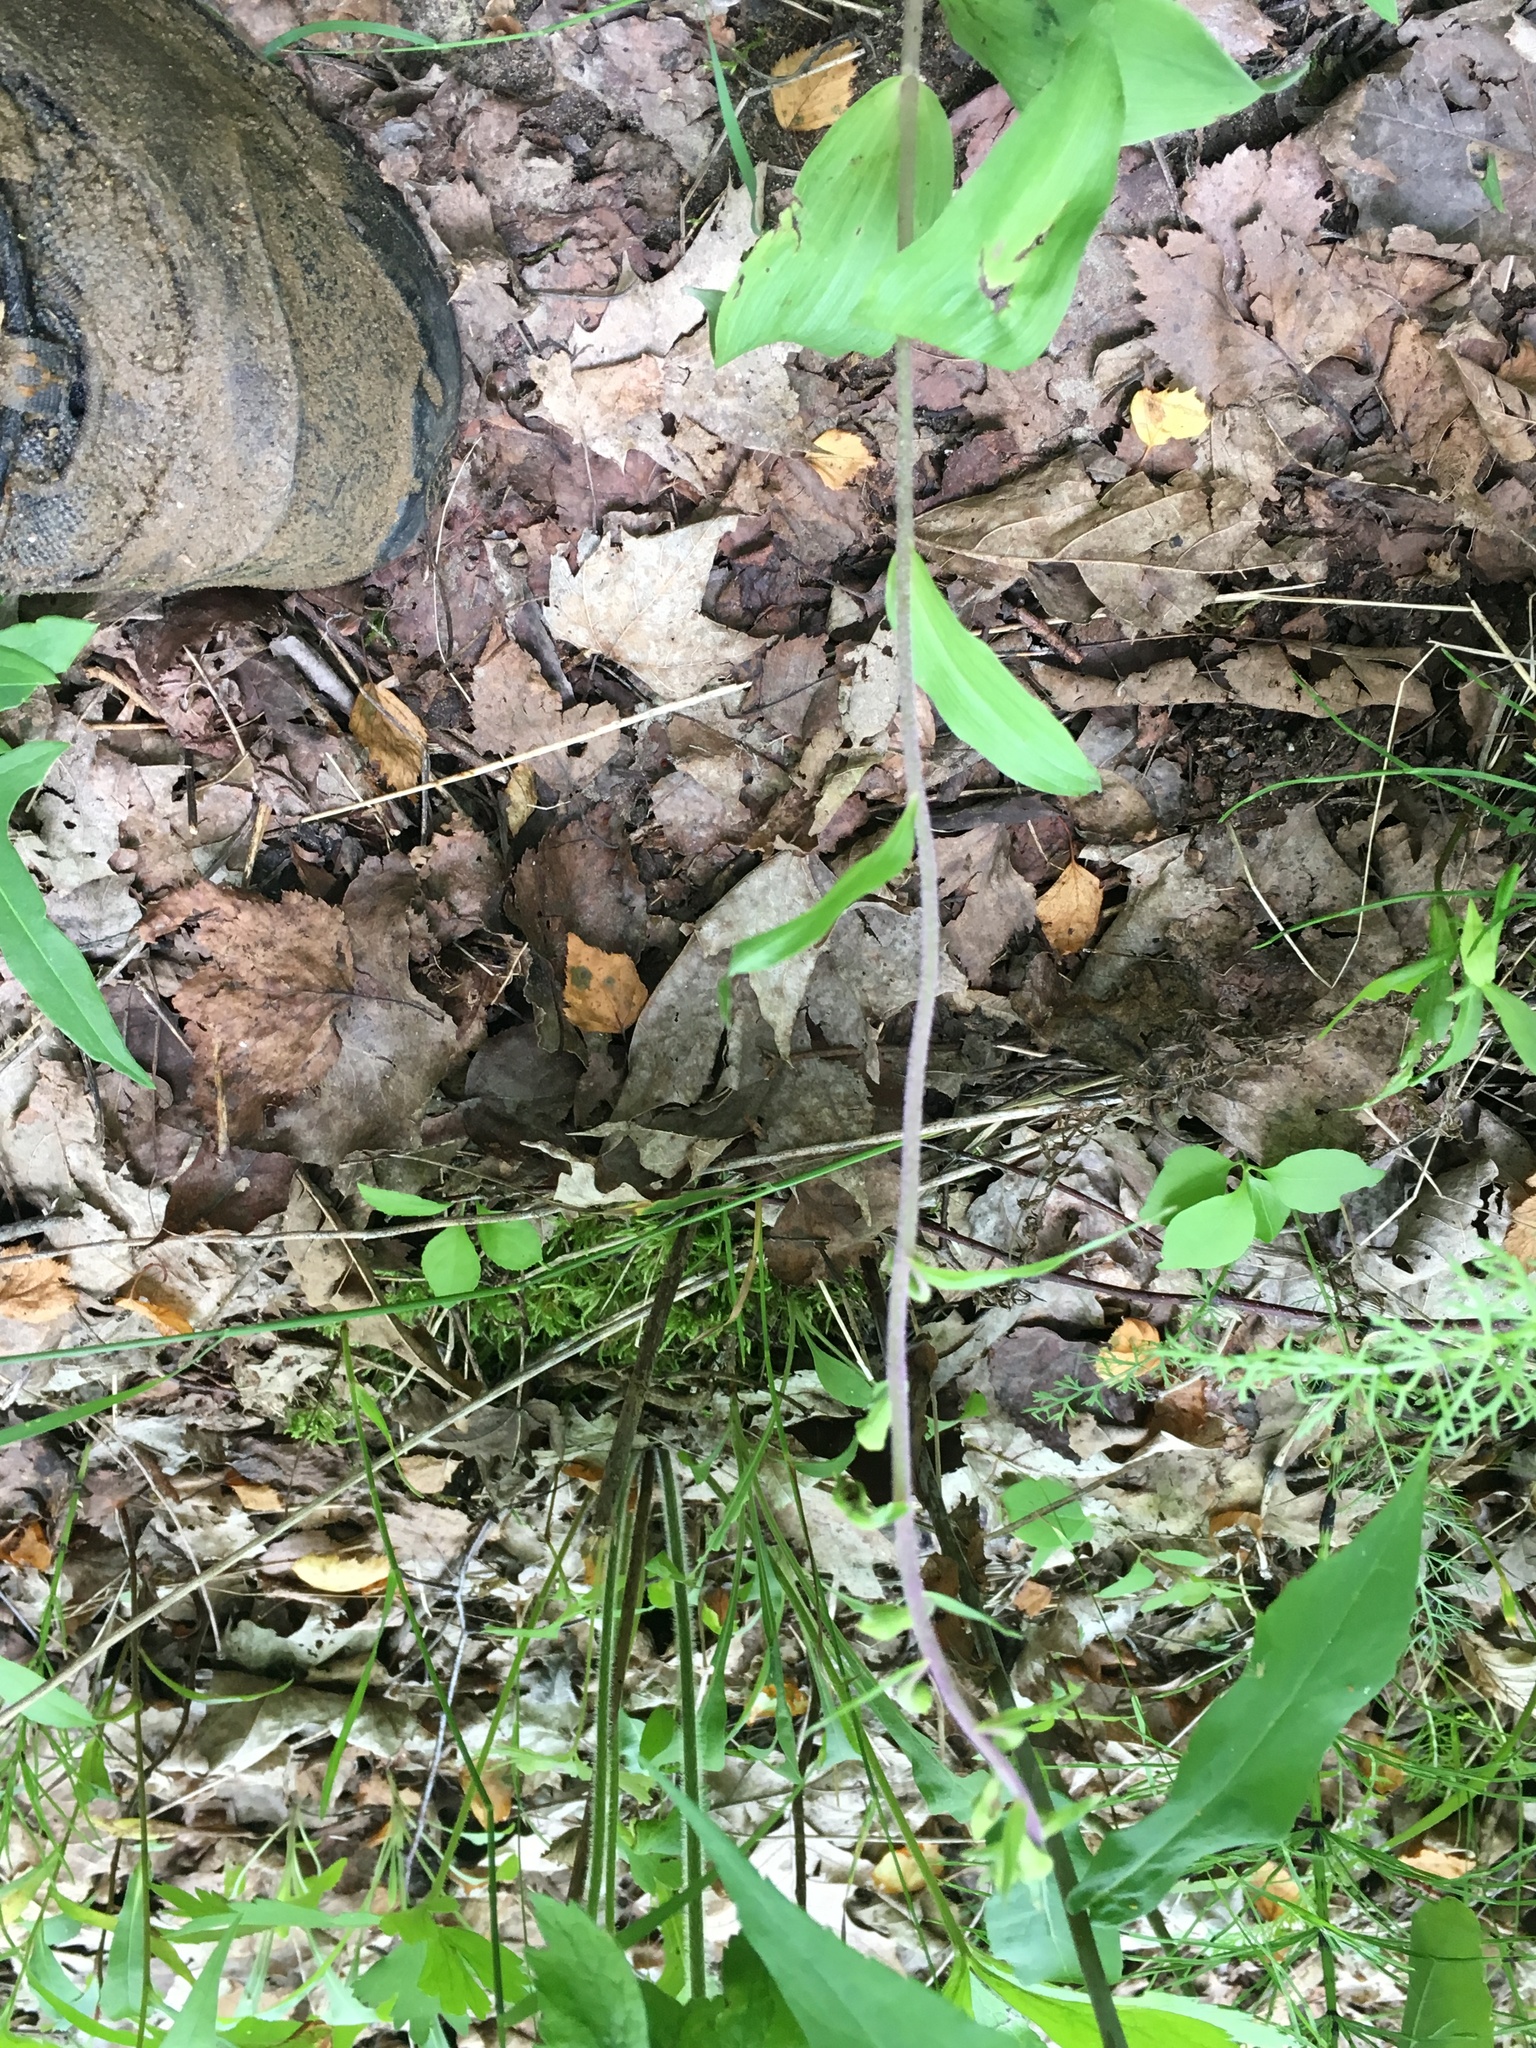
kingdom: Plantae
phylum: Tracheophyta
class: Liliopsida
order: Asparagales
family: Orchidaceae
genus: Epipactis
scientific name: Epipactis helleborine
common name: Broad-leaved helleborine
